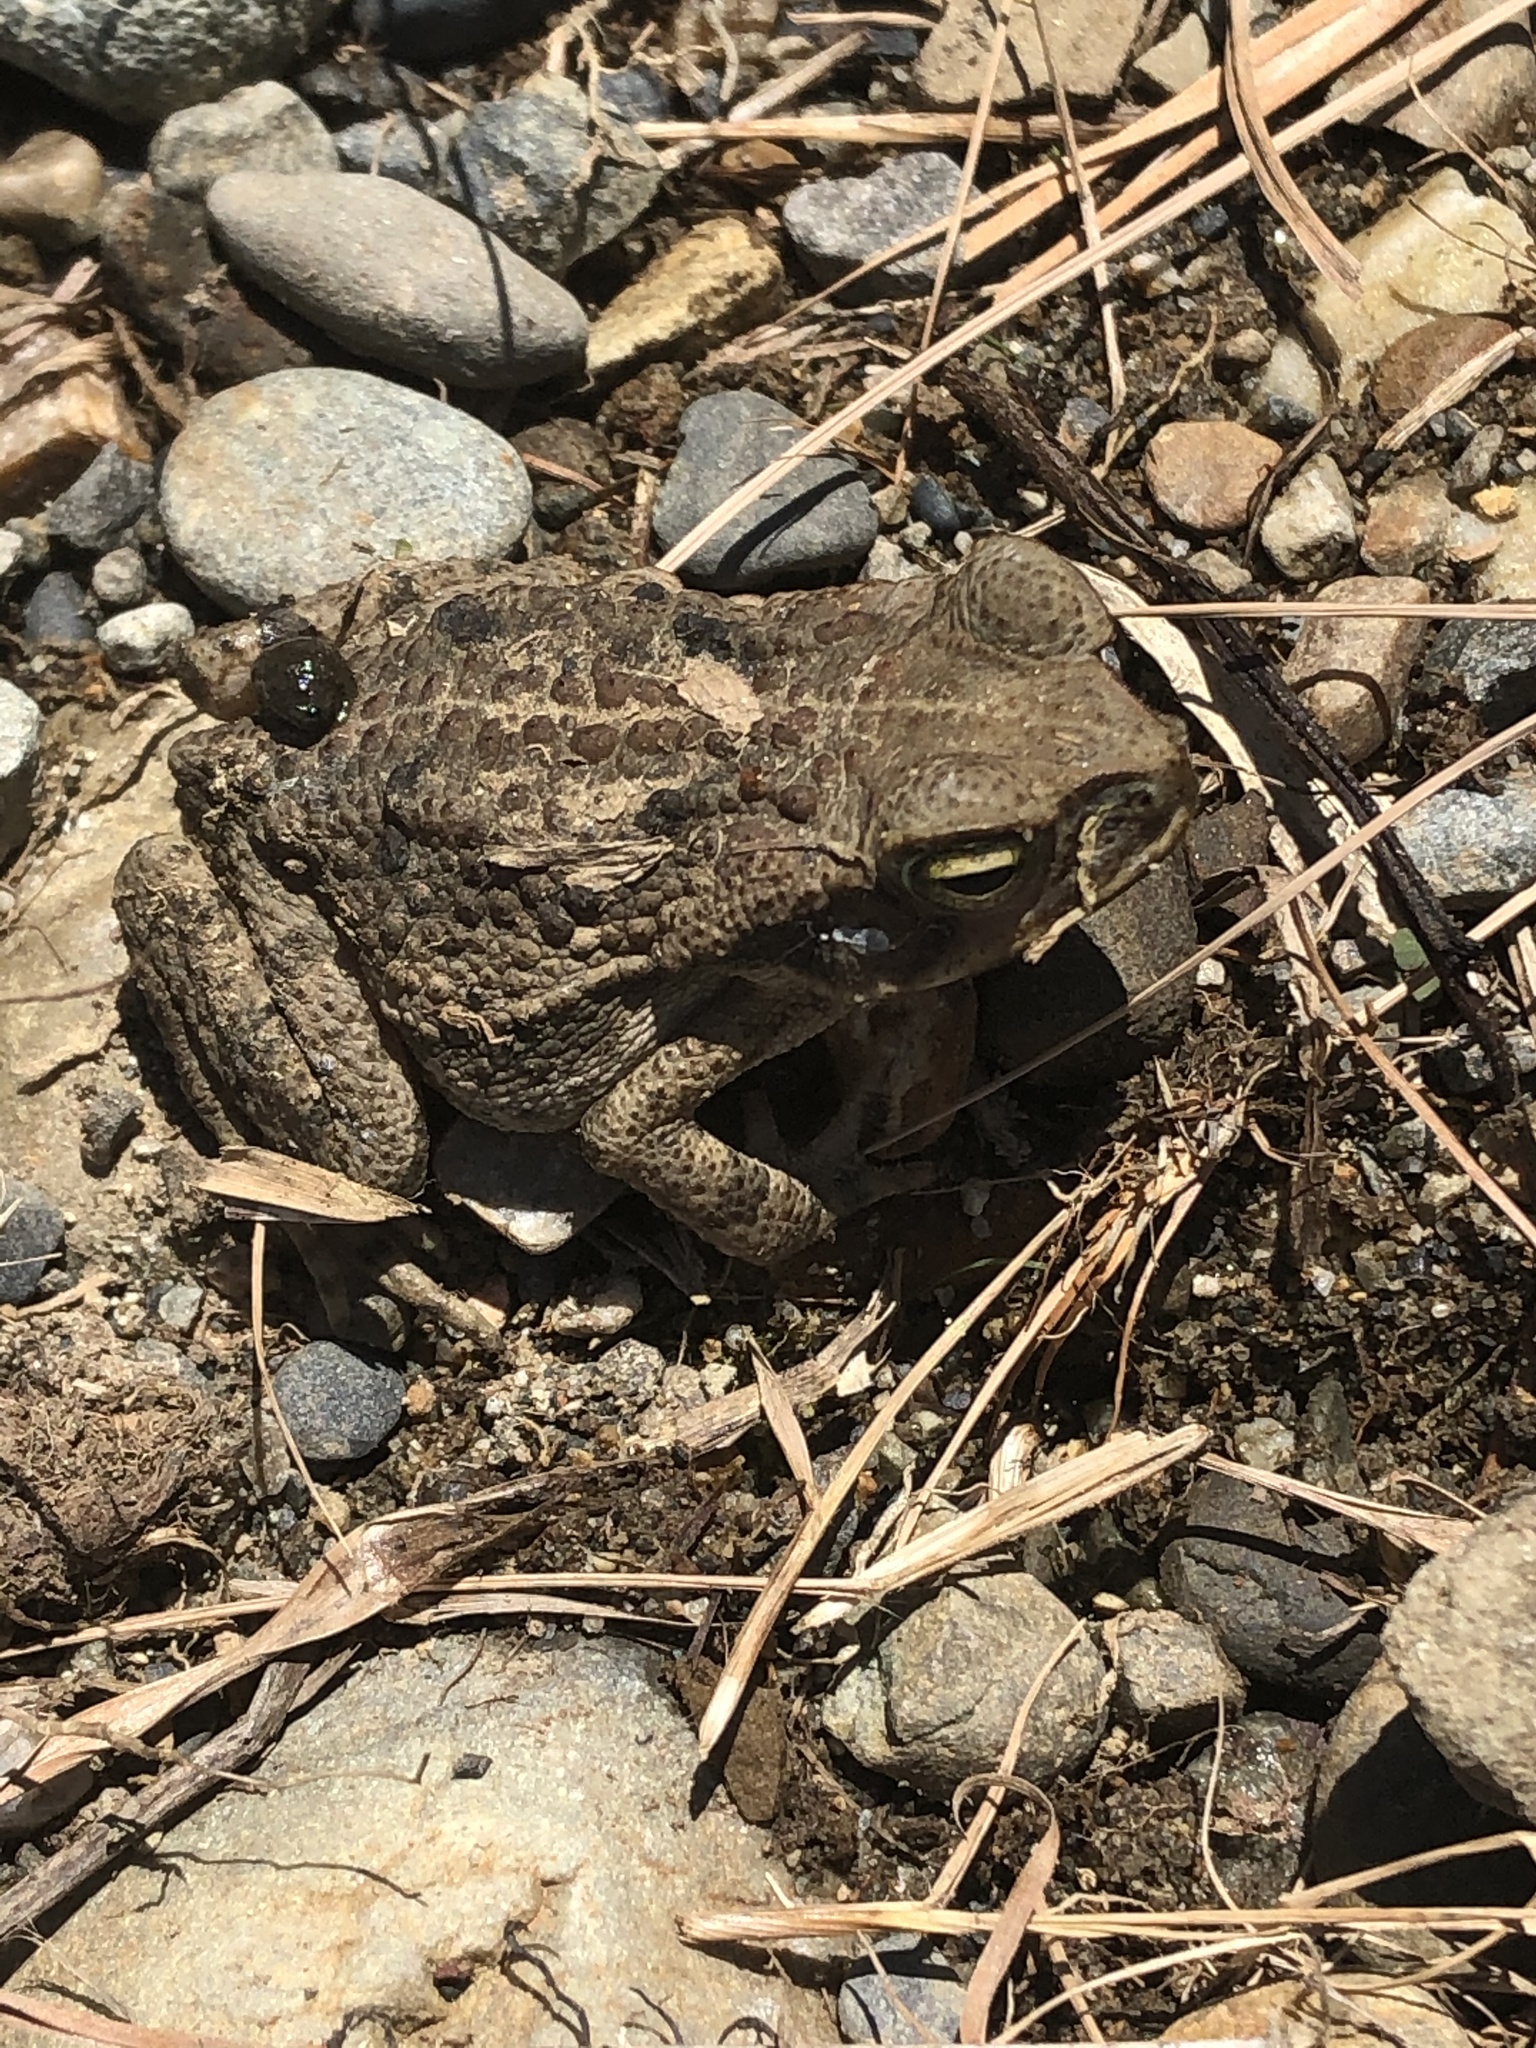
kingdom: Animalia
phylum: Chordata
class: Amphibia
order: Anura
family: Bufonidae
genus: Rhinella
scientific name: Rhinella marina
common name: Cane toad
